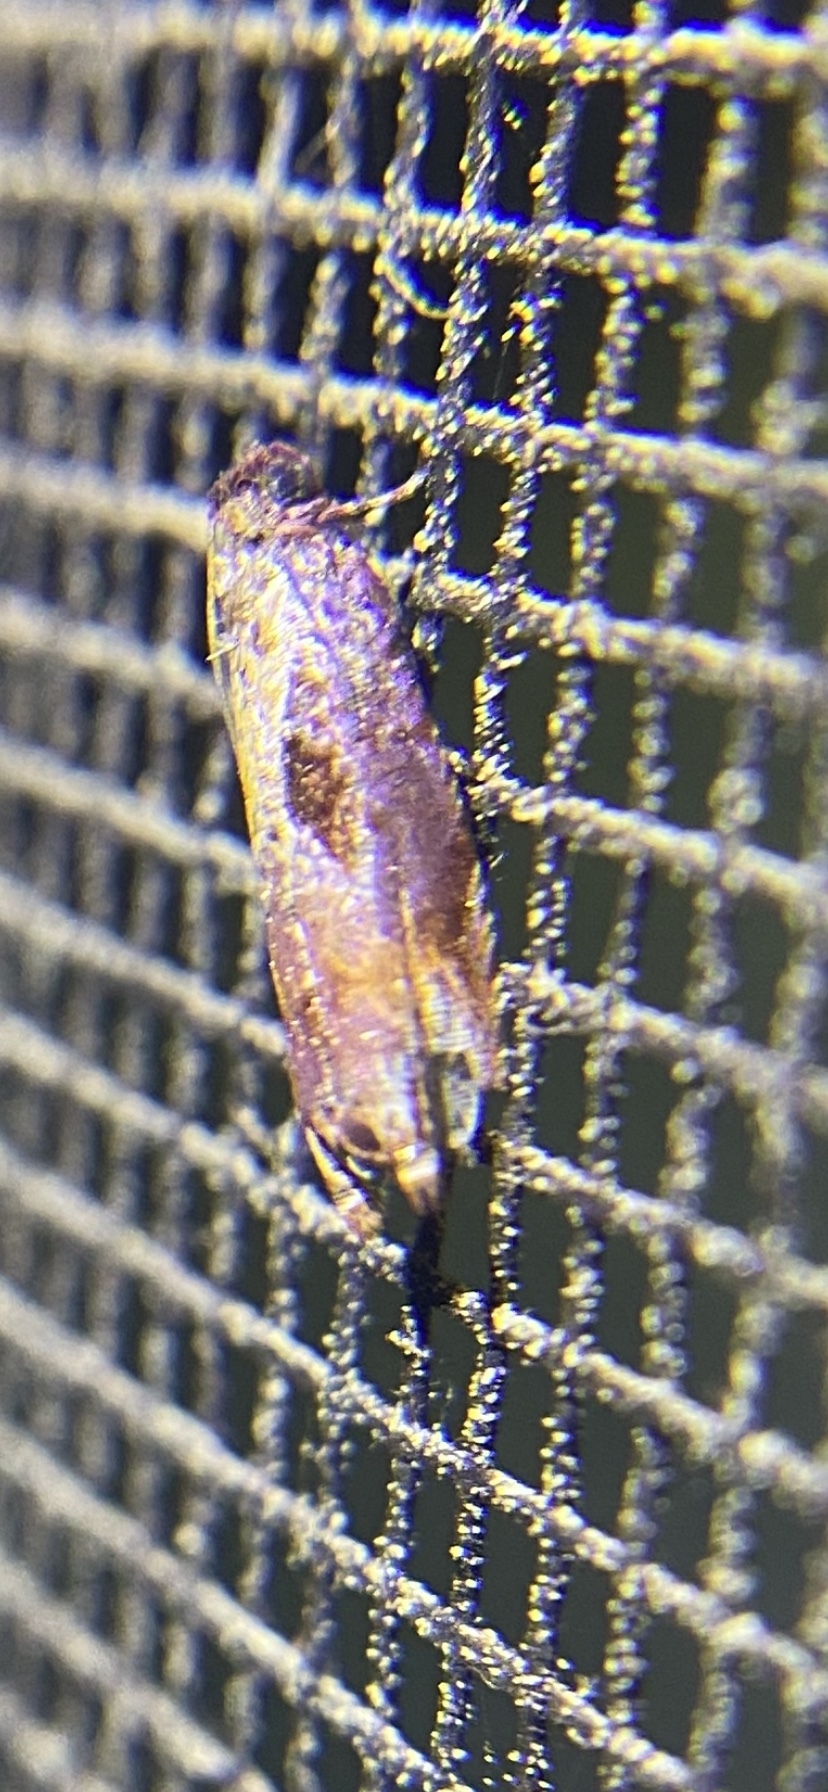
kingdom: Animalia
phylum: Arthropoda
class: Insecta
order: Lepidoptera
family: Tortricidae
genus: Episimus
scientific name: Episimus tyrius
